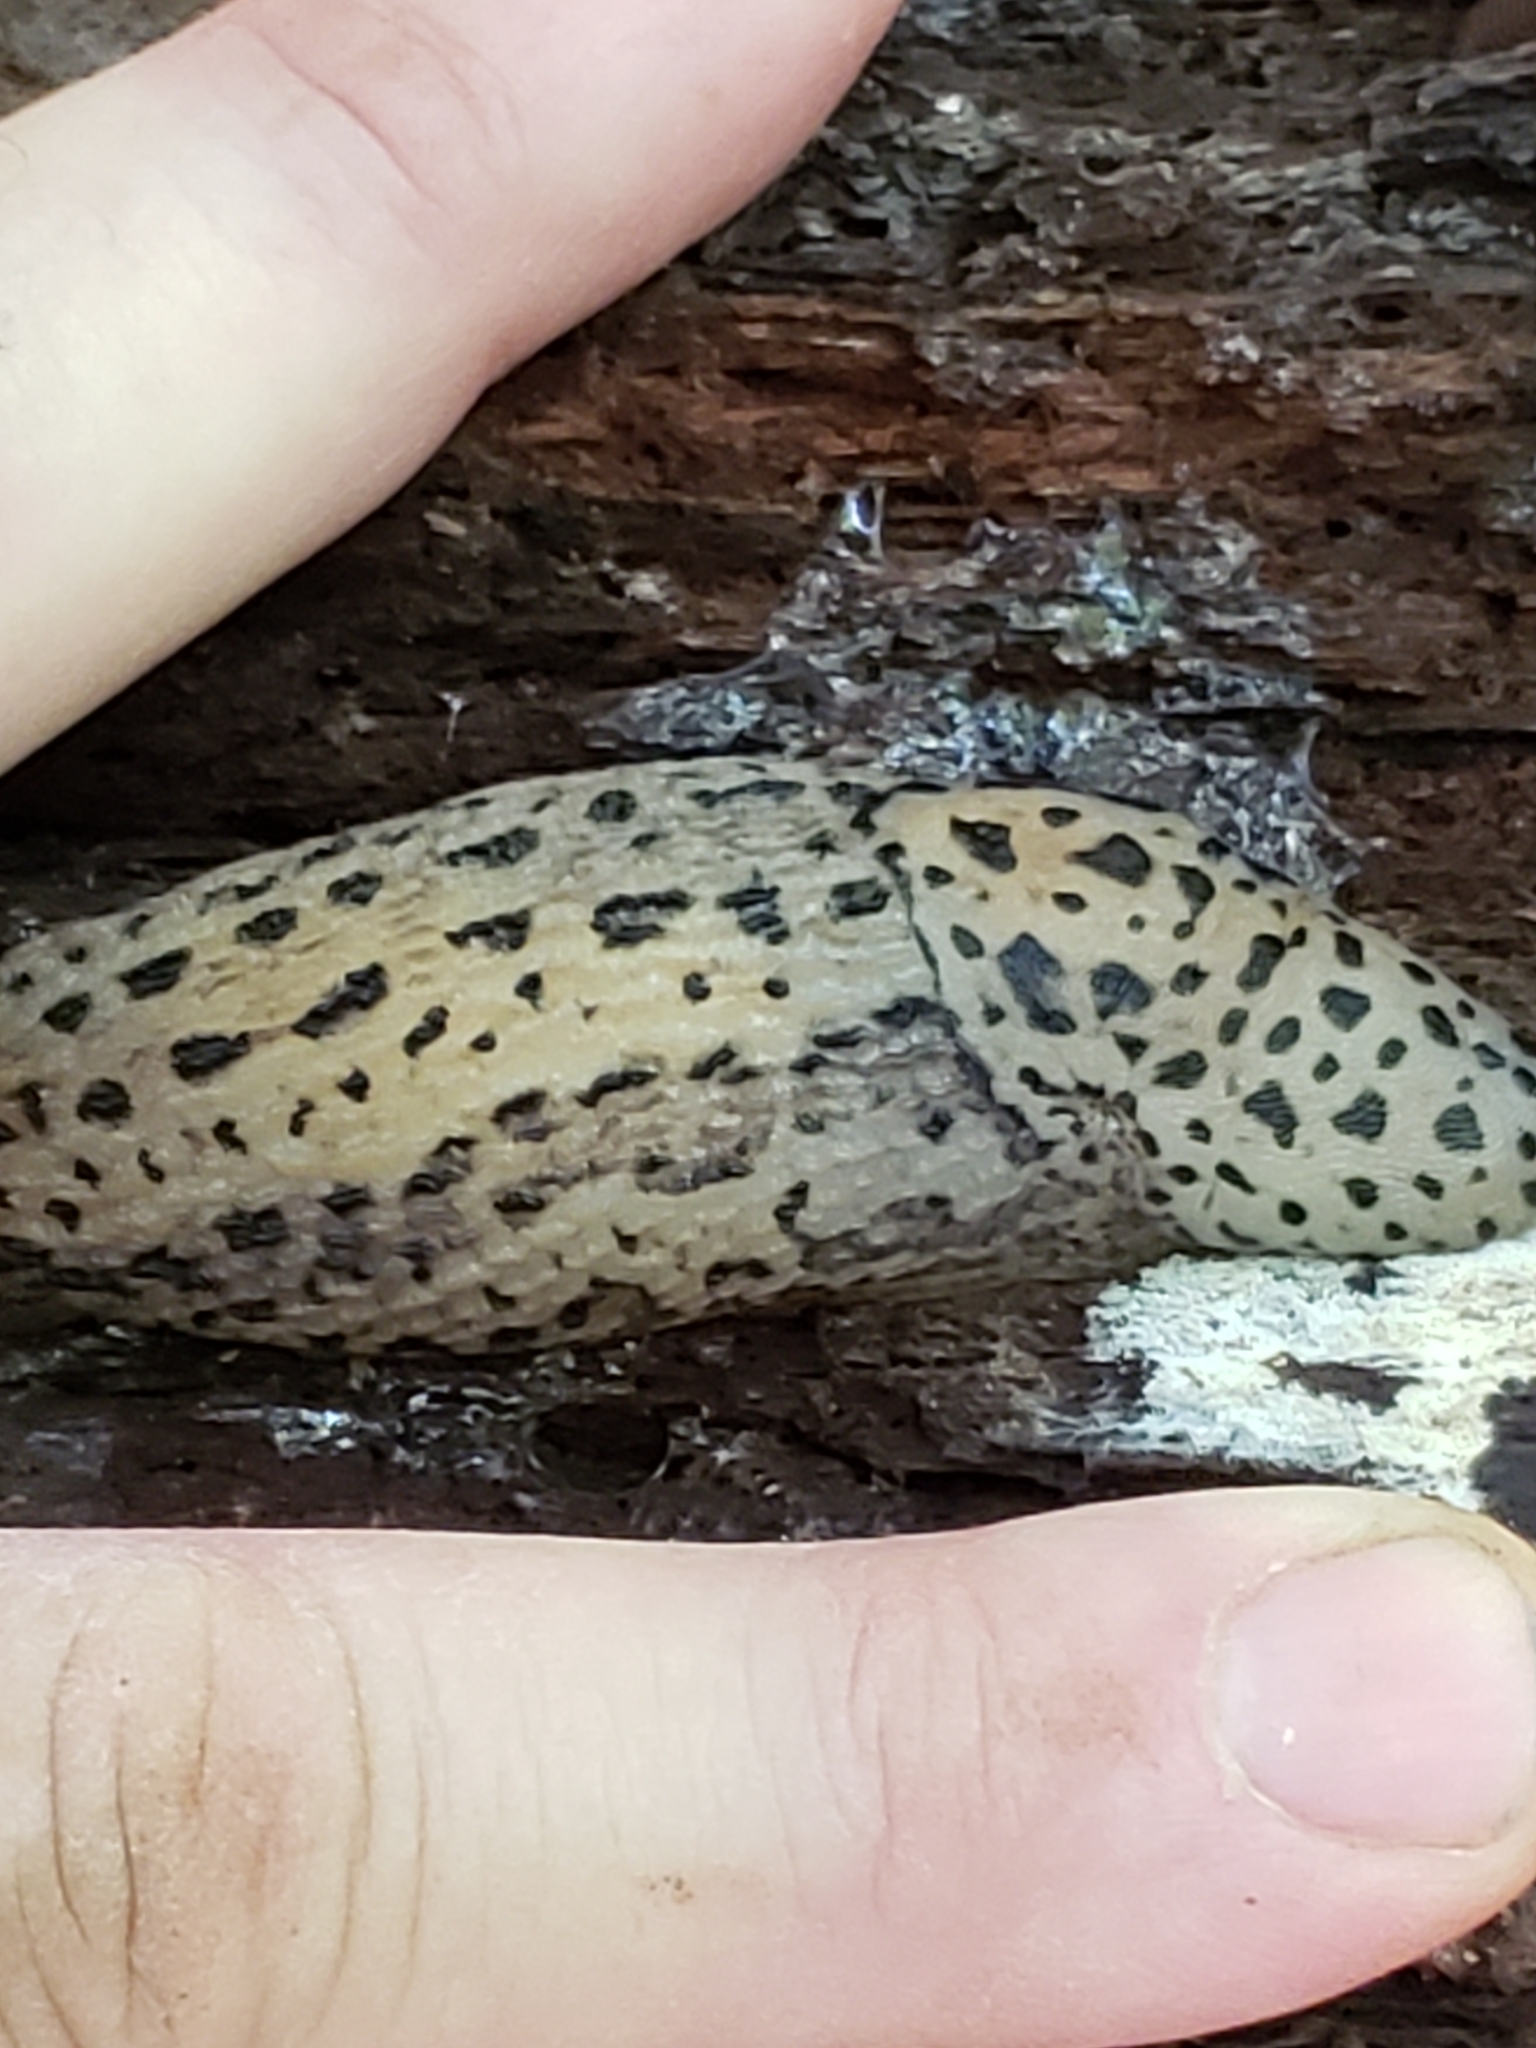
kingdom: Animalia
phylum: Mollusca
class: Gastropoda
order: Stylommatophora
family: Limacidae
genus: Limax
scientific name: Limax maximus
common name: Great grey slug
